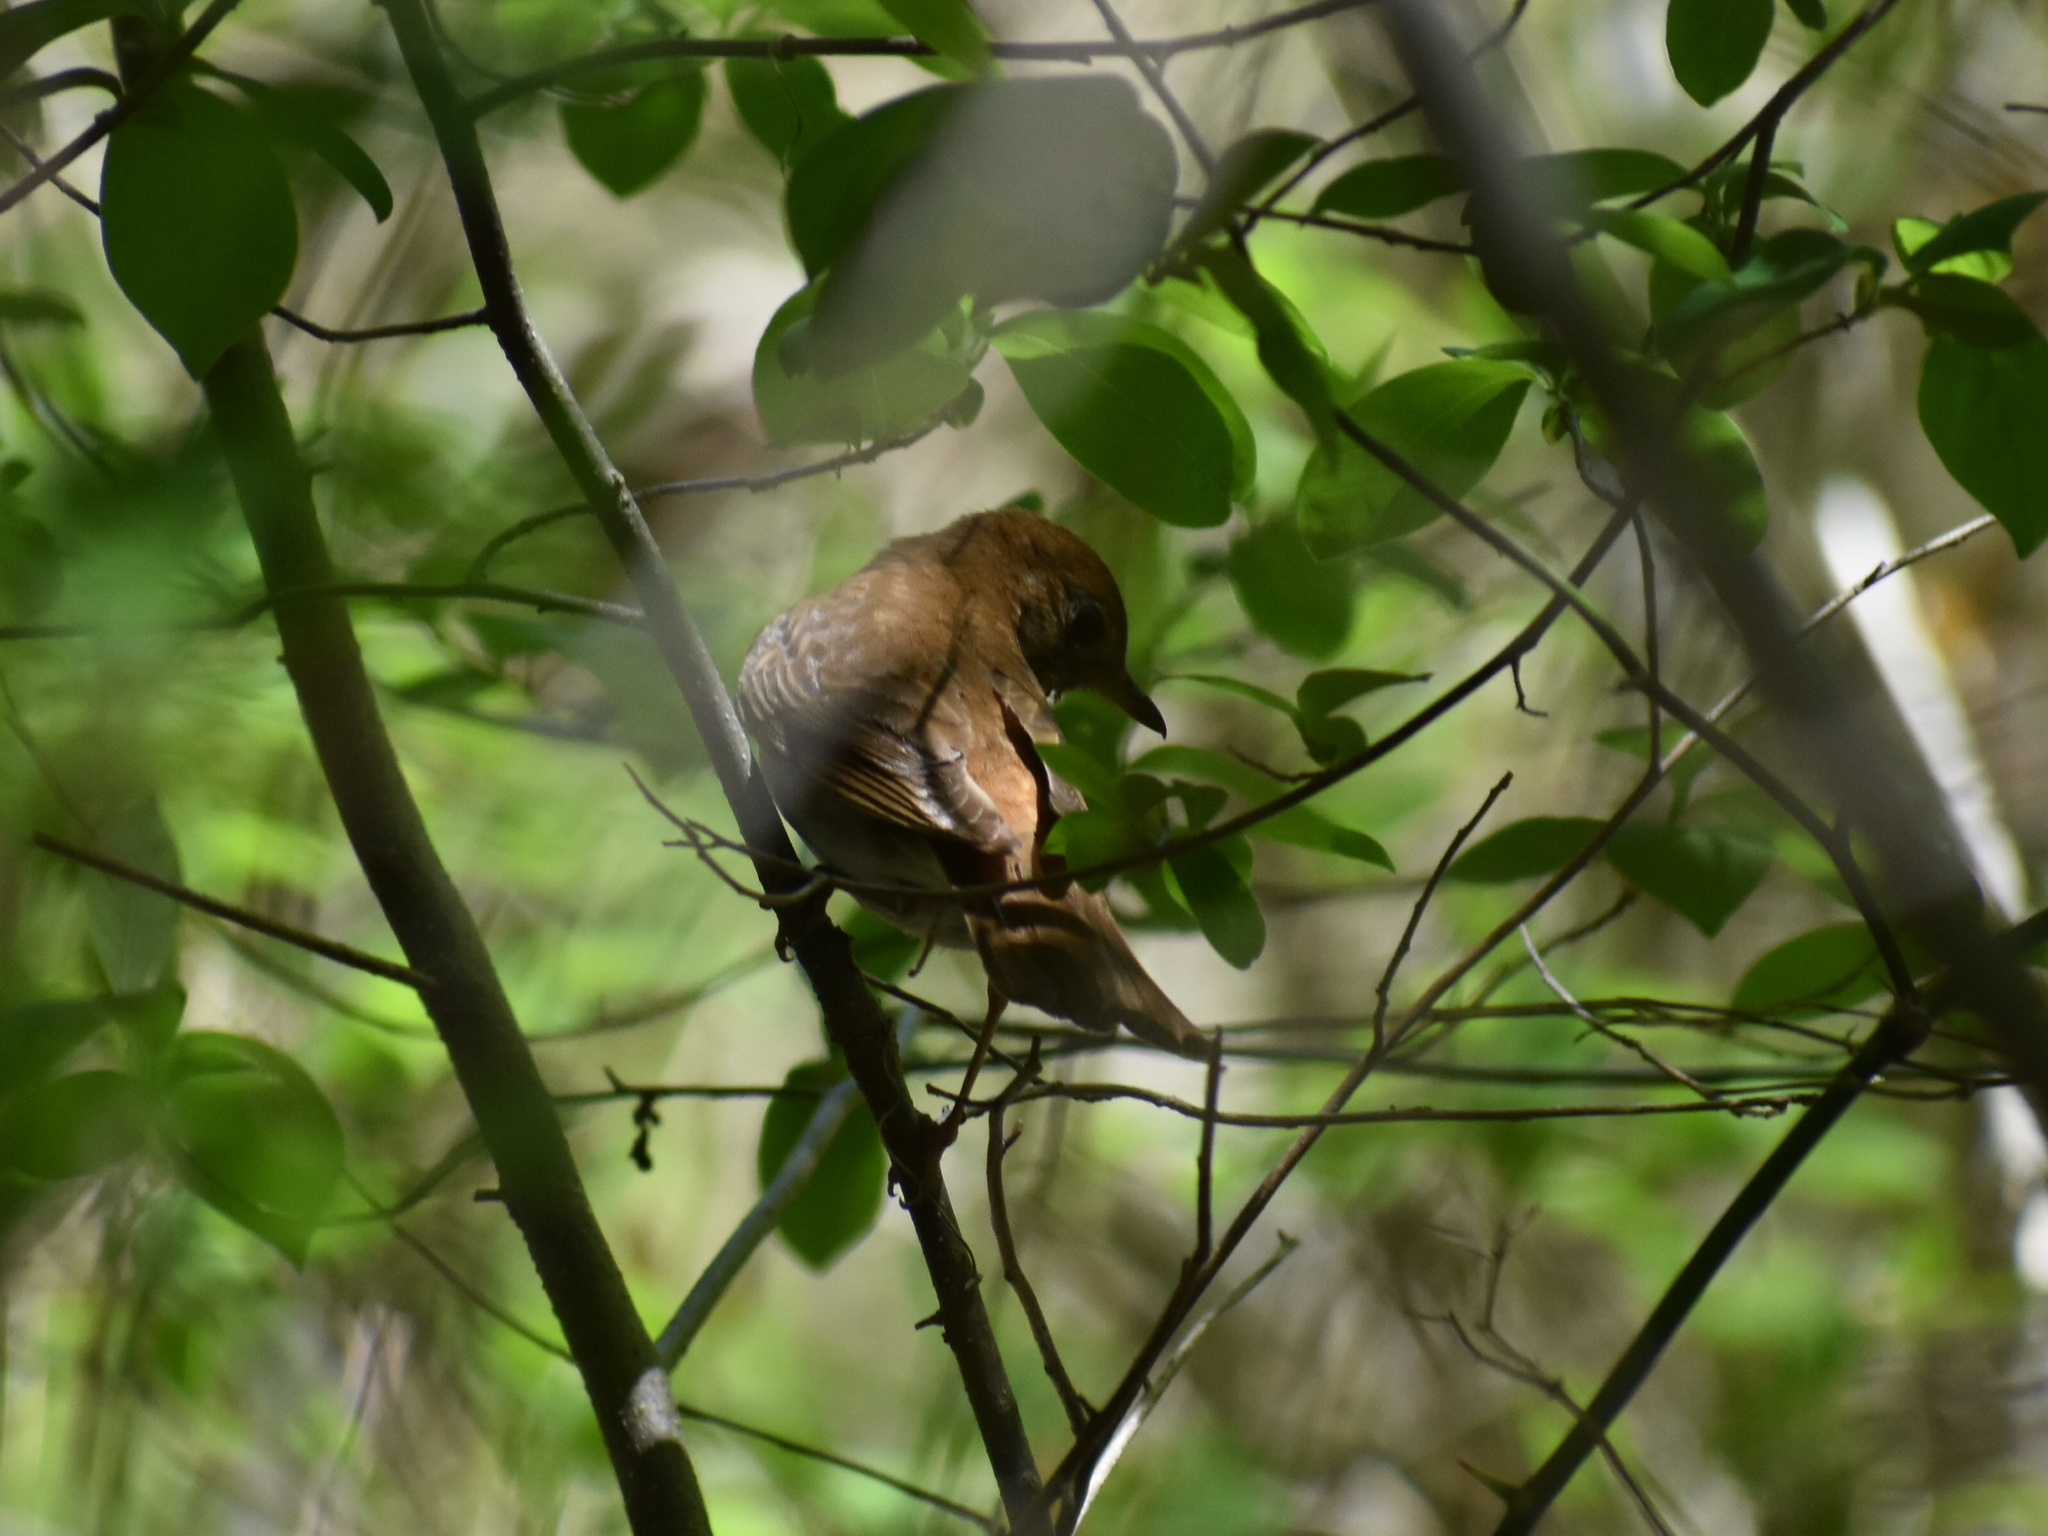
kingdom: Animalia
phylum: Chordata
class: Aves
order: Passeriformes
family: Turdidae
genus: Catharus
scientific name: Catharus fuscescens
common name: Veery
